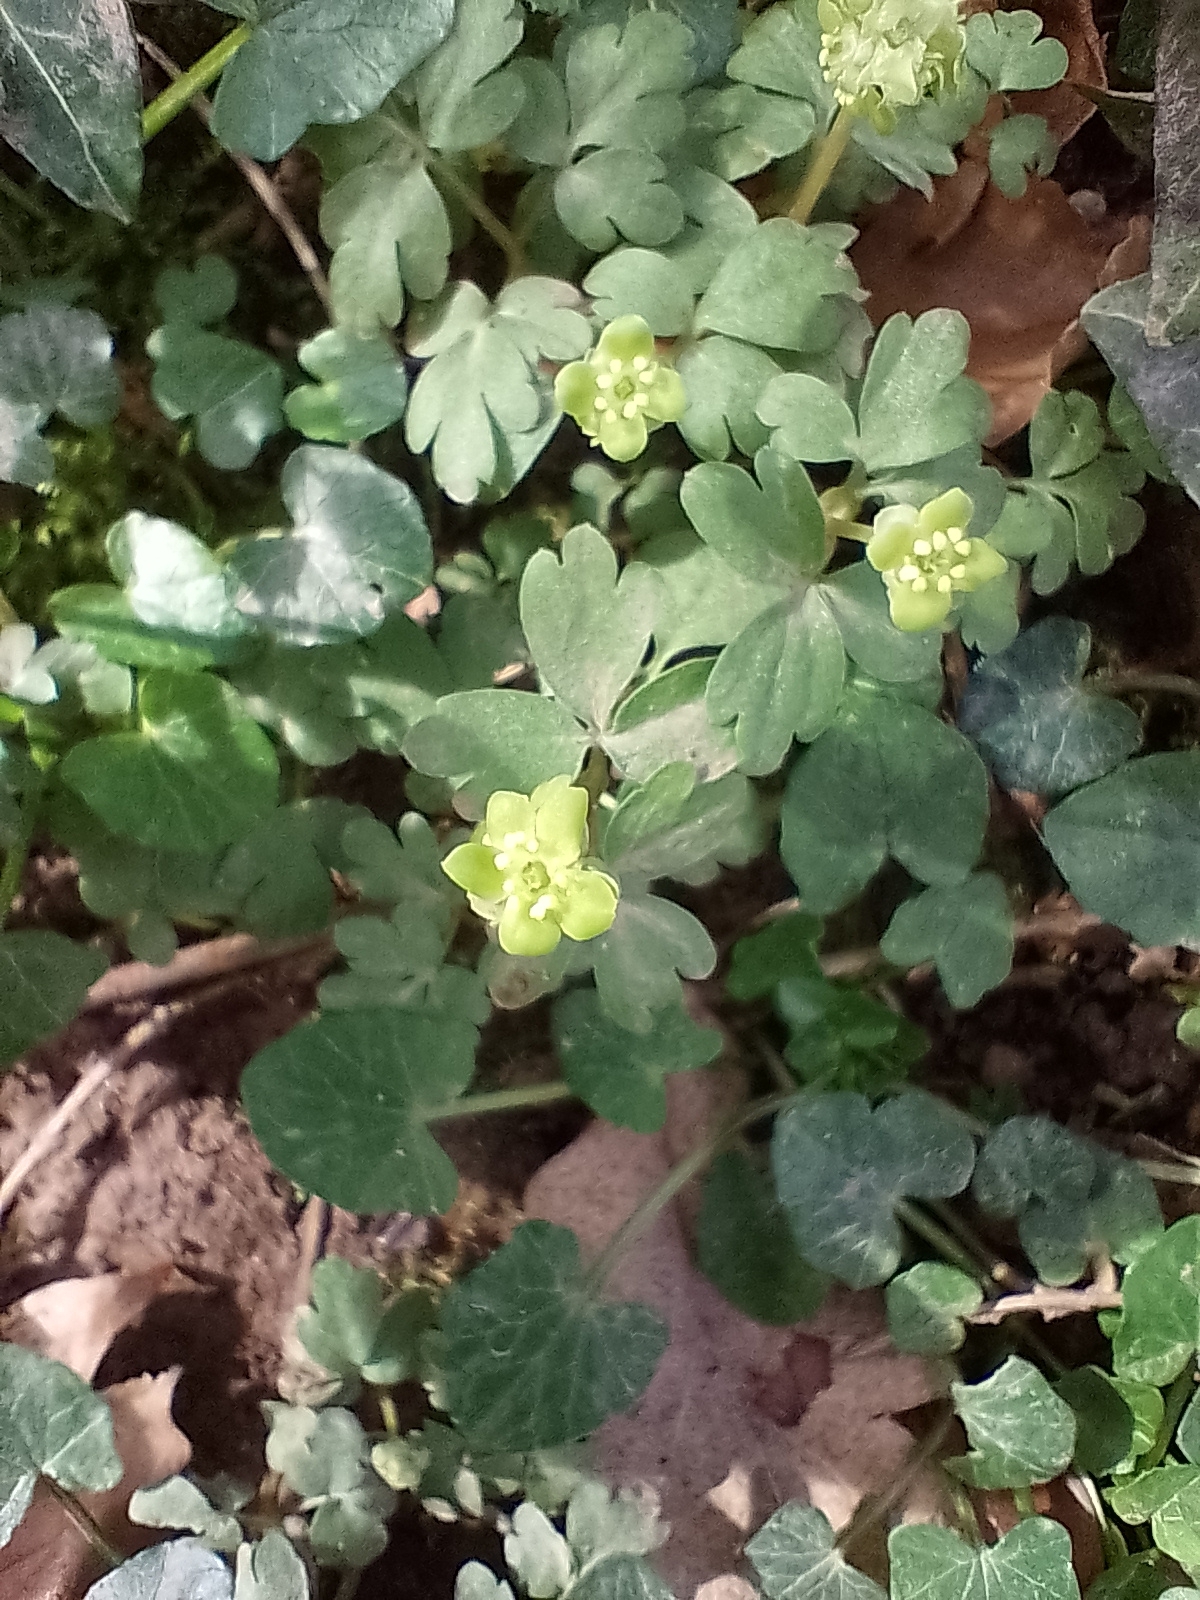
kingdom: Plantae
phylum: Tracheophyta
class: Magnoliopsida
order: Dipsacales
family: Viburnaceae
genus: Adoxa
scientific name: Adoxa moschatellina
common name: Moschatel
